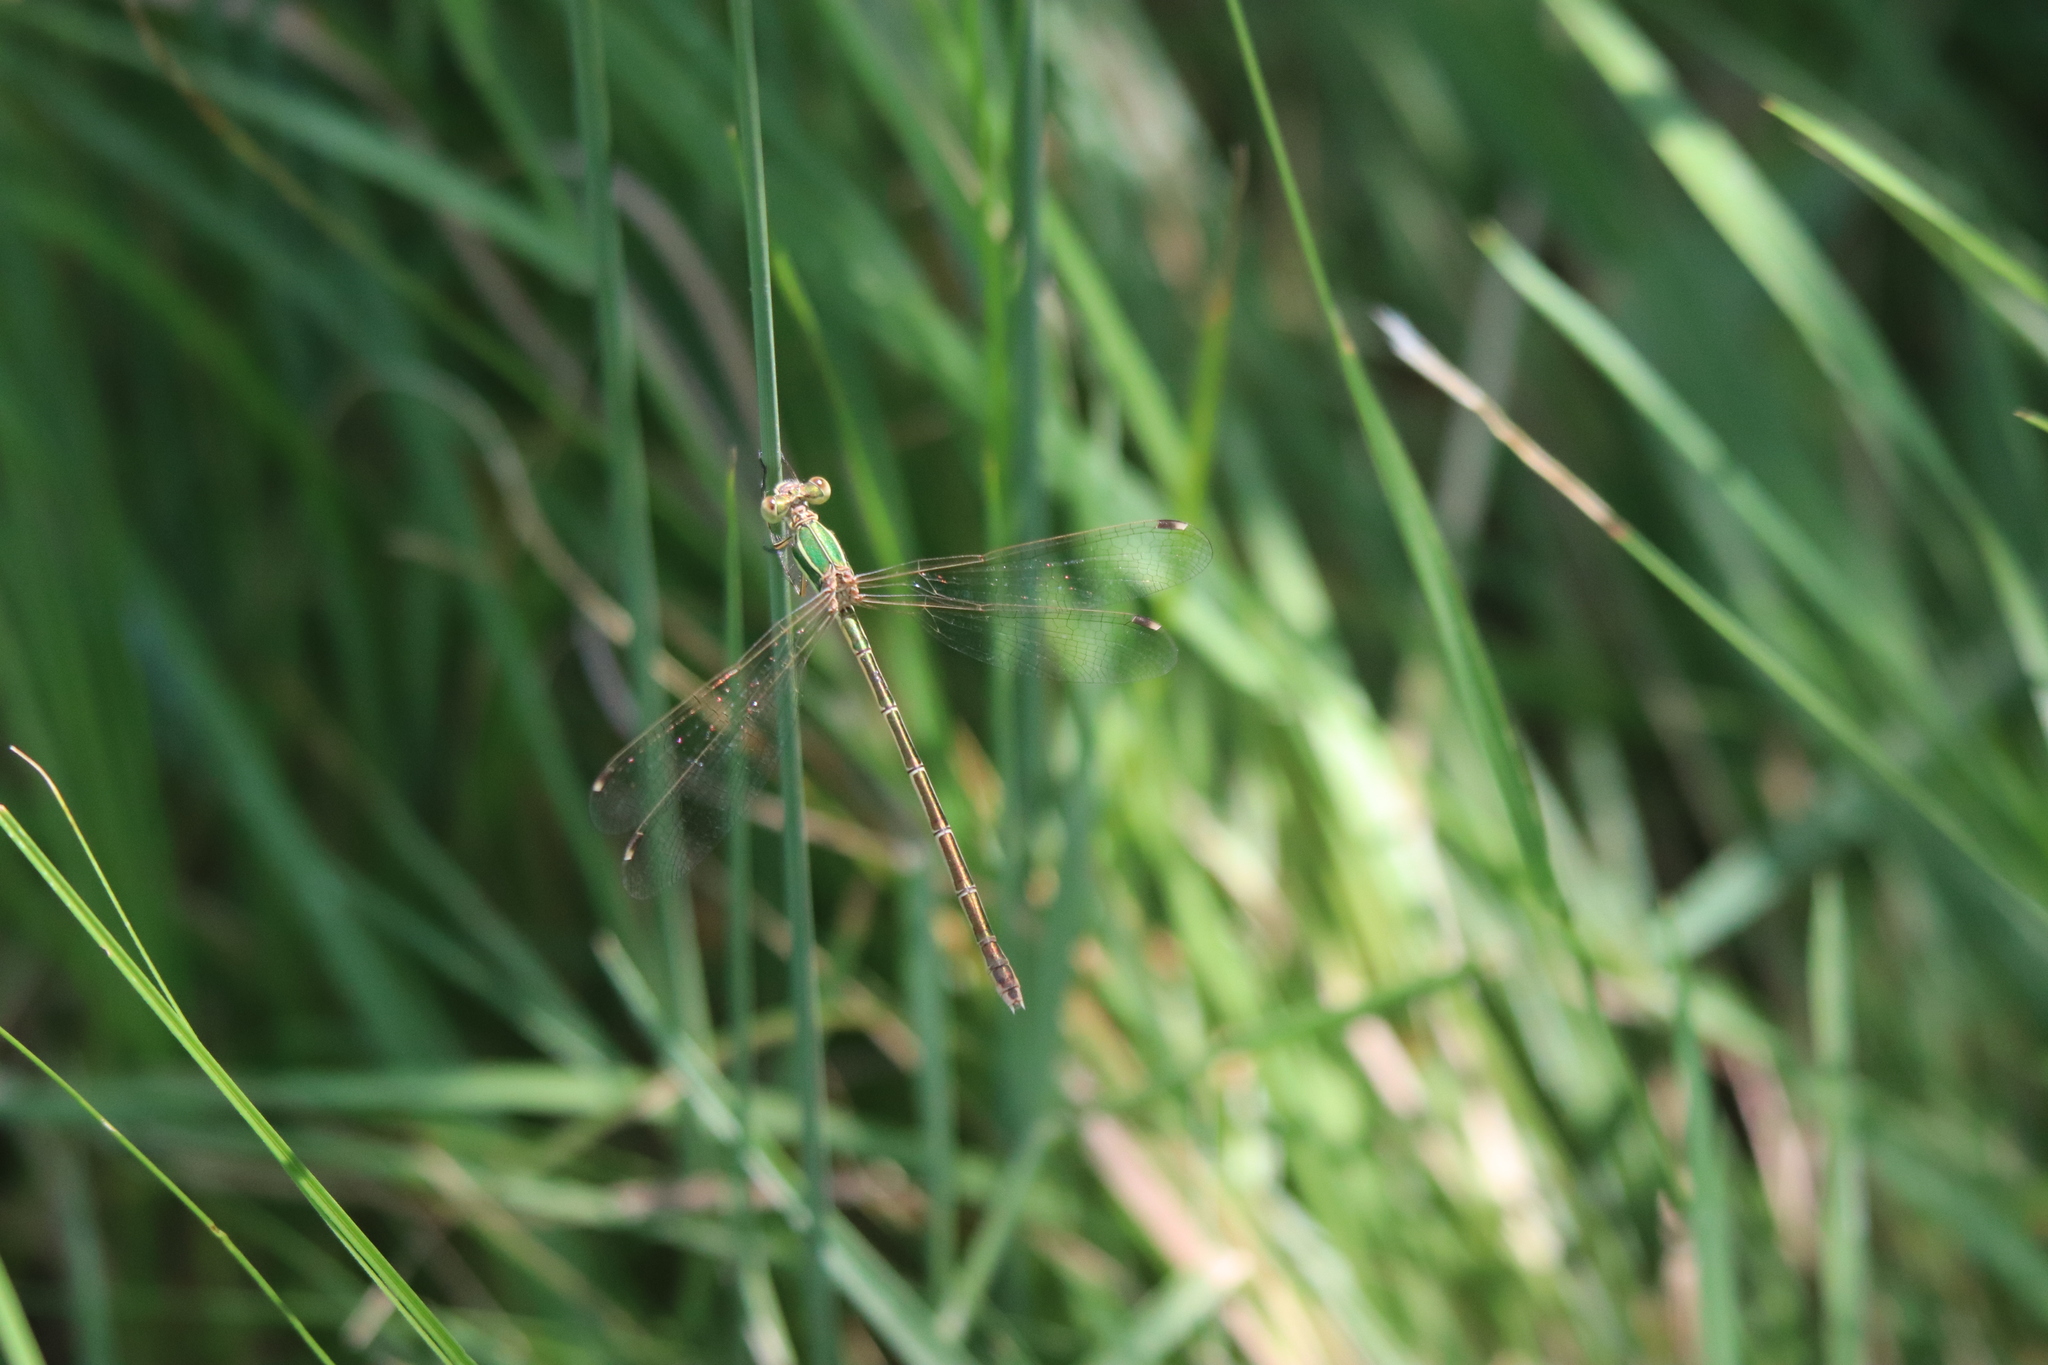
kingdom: Animalia
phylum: Arthropoda
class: Insecta
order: Odonata
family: Lestidae
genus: Lestes
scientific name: Lestes barbarus
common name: Migrant spreadwing
